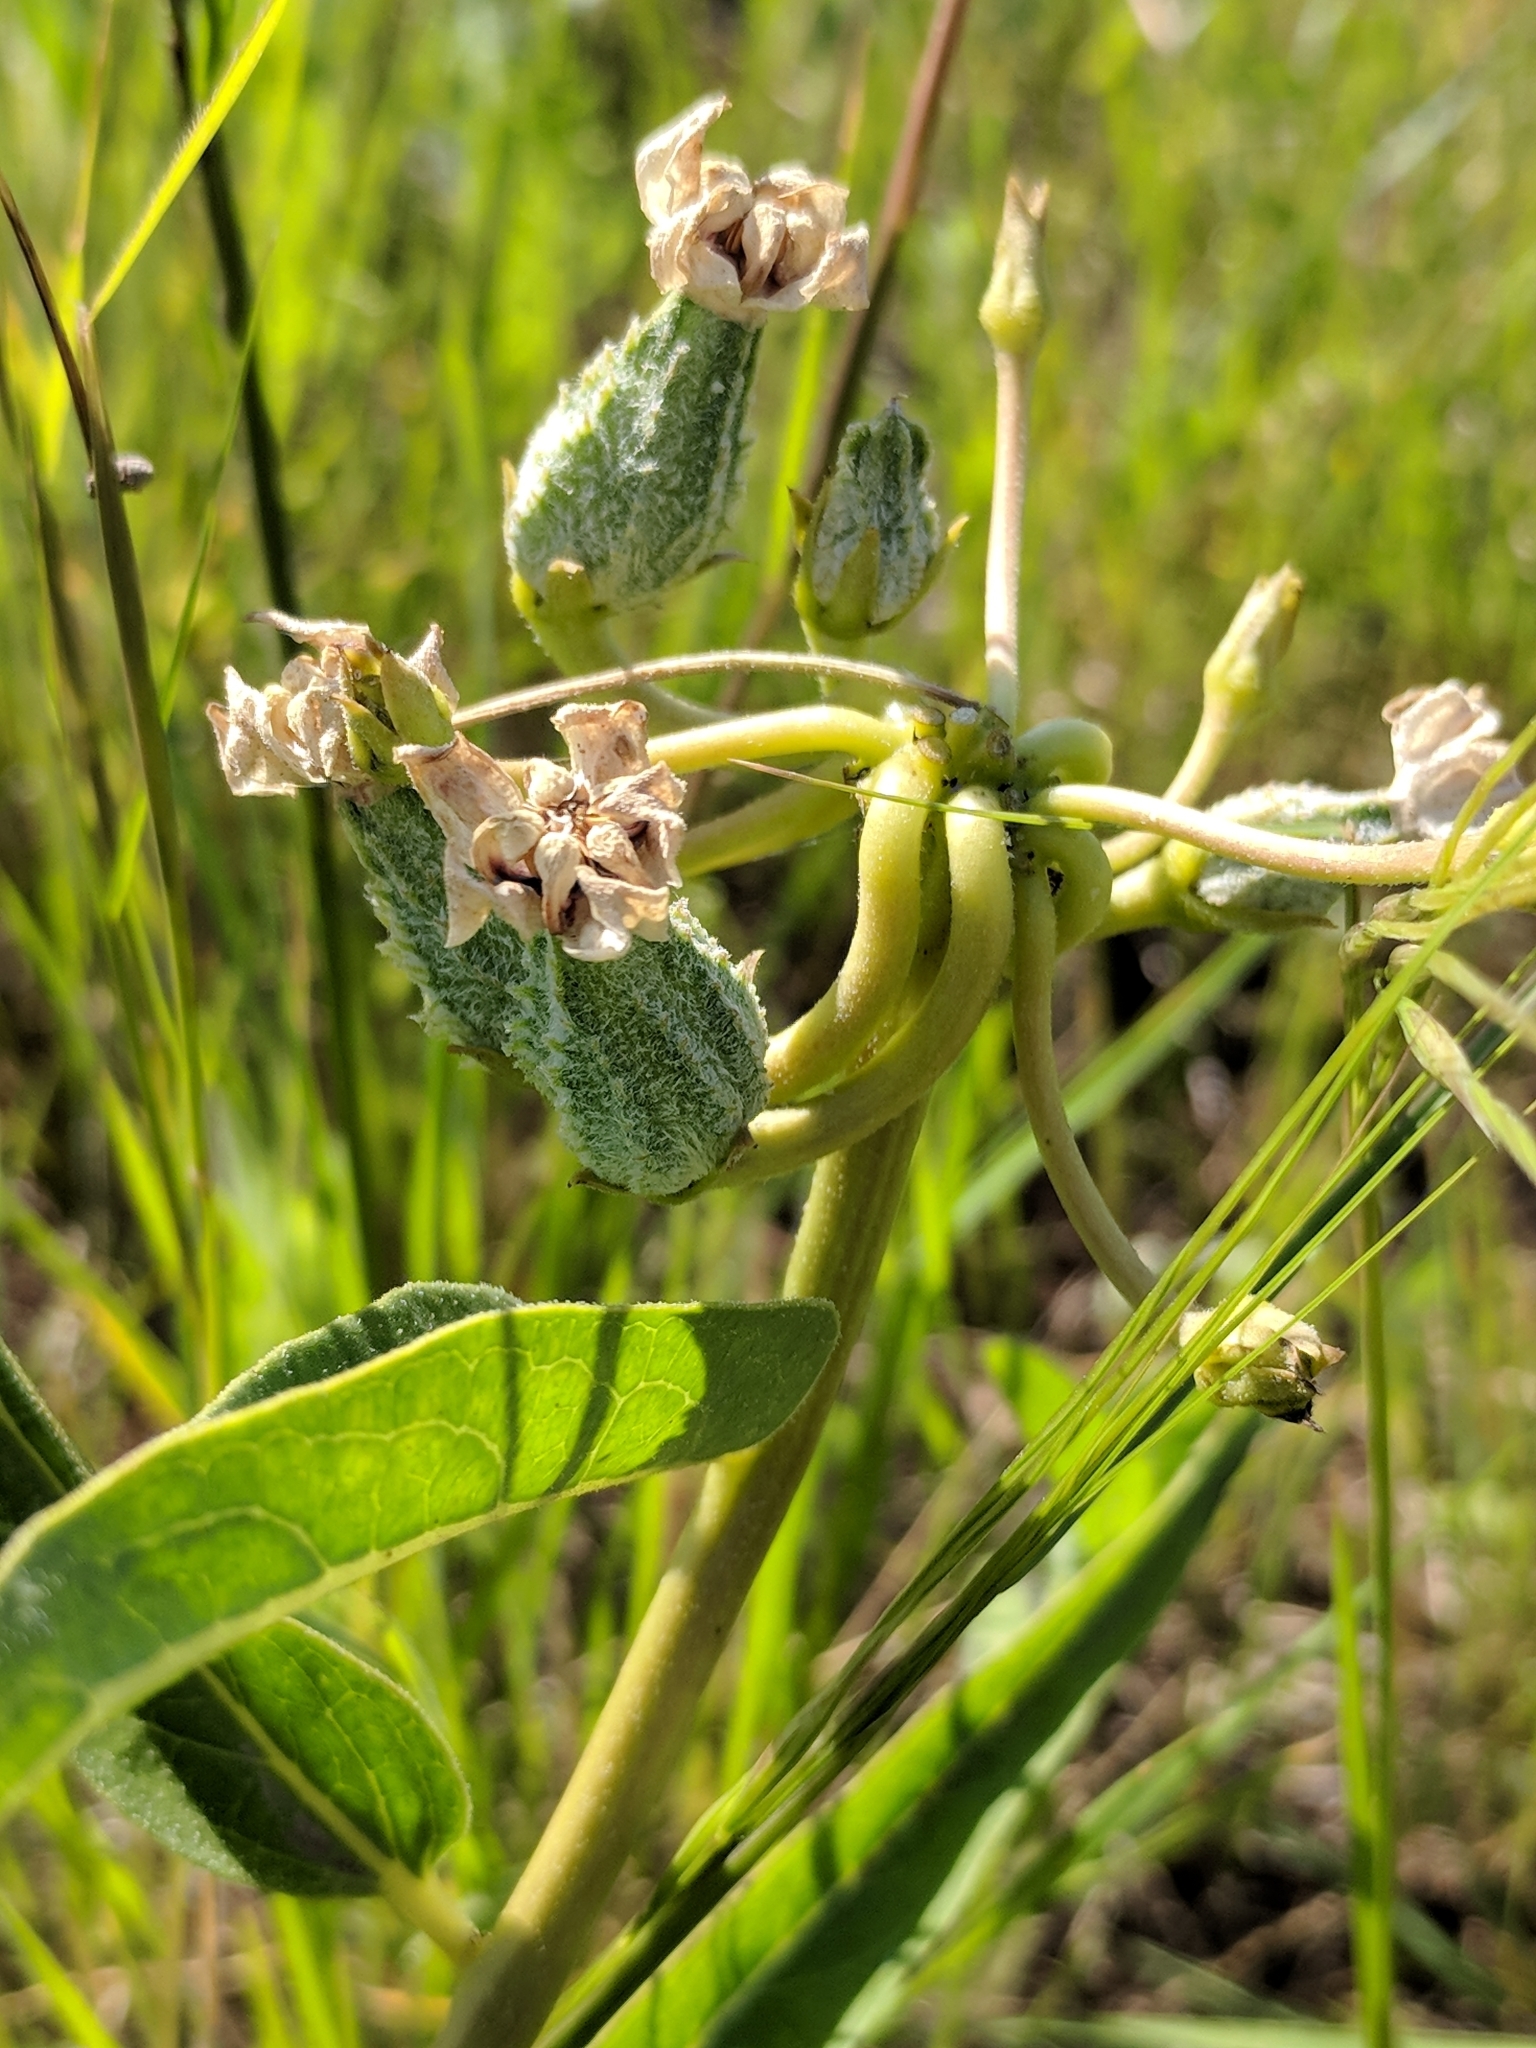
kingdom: Plantae
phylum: Tracheophyta
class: Magnoliopsida
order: Gentianales
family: Apocynaceae
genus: Asclepias
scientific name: Asclepias asperula
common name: Antelope horns
